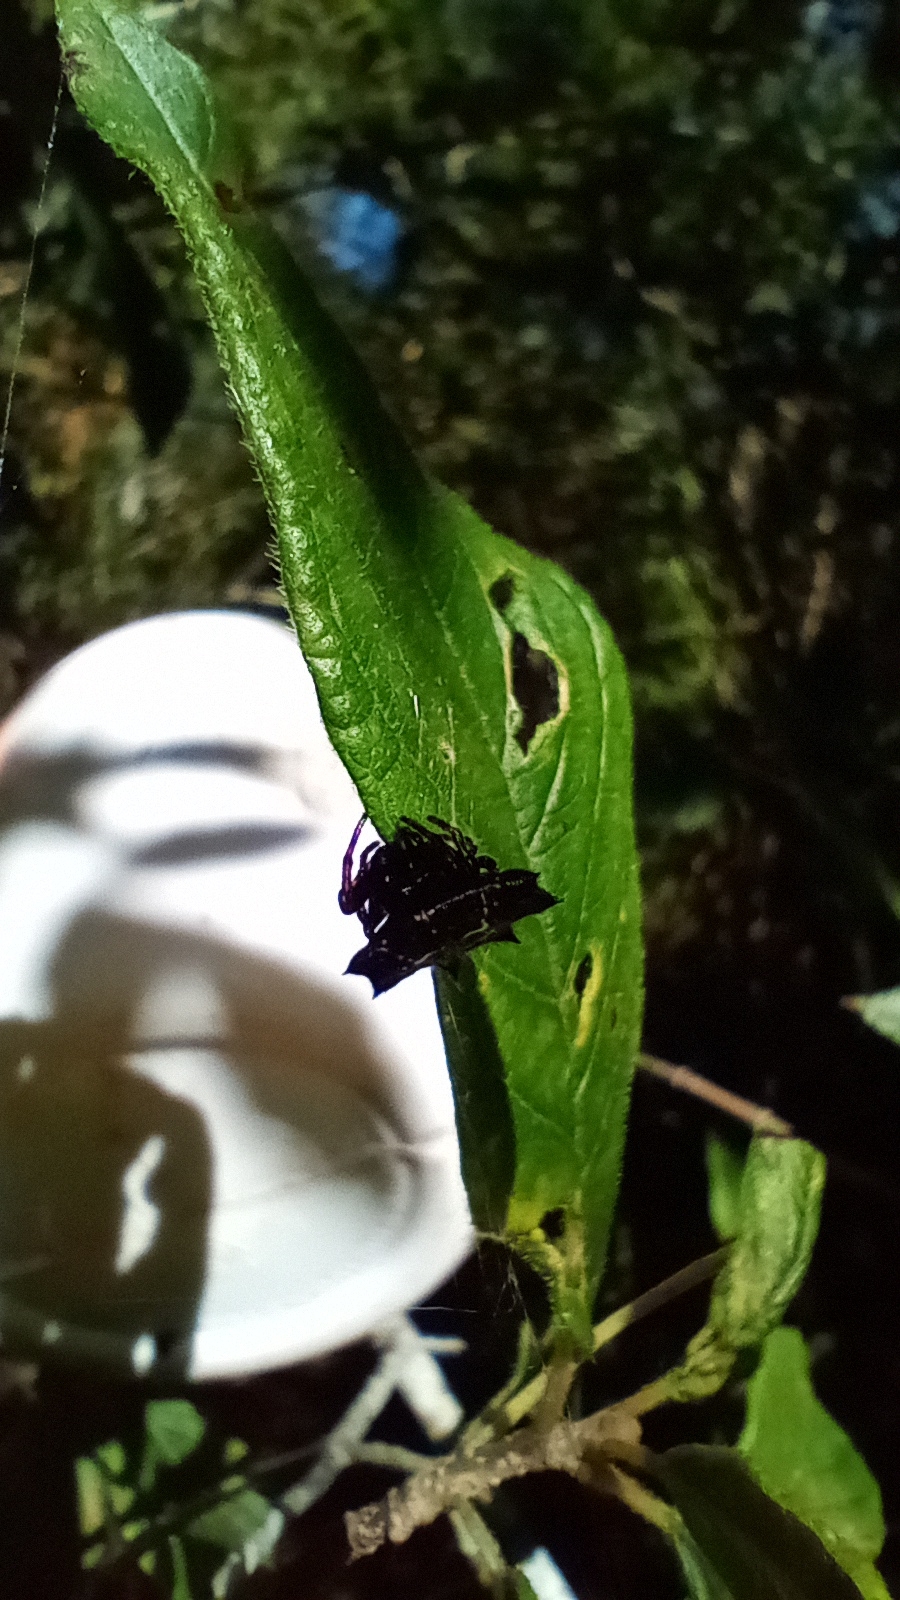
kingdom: Animalia
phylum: Arthropoda
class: Arachnida
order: Araneae
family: Araneidae
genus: Gasteracantha
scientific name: Gasteracantha cancriformis
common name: Orb weavers
